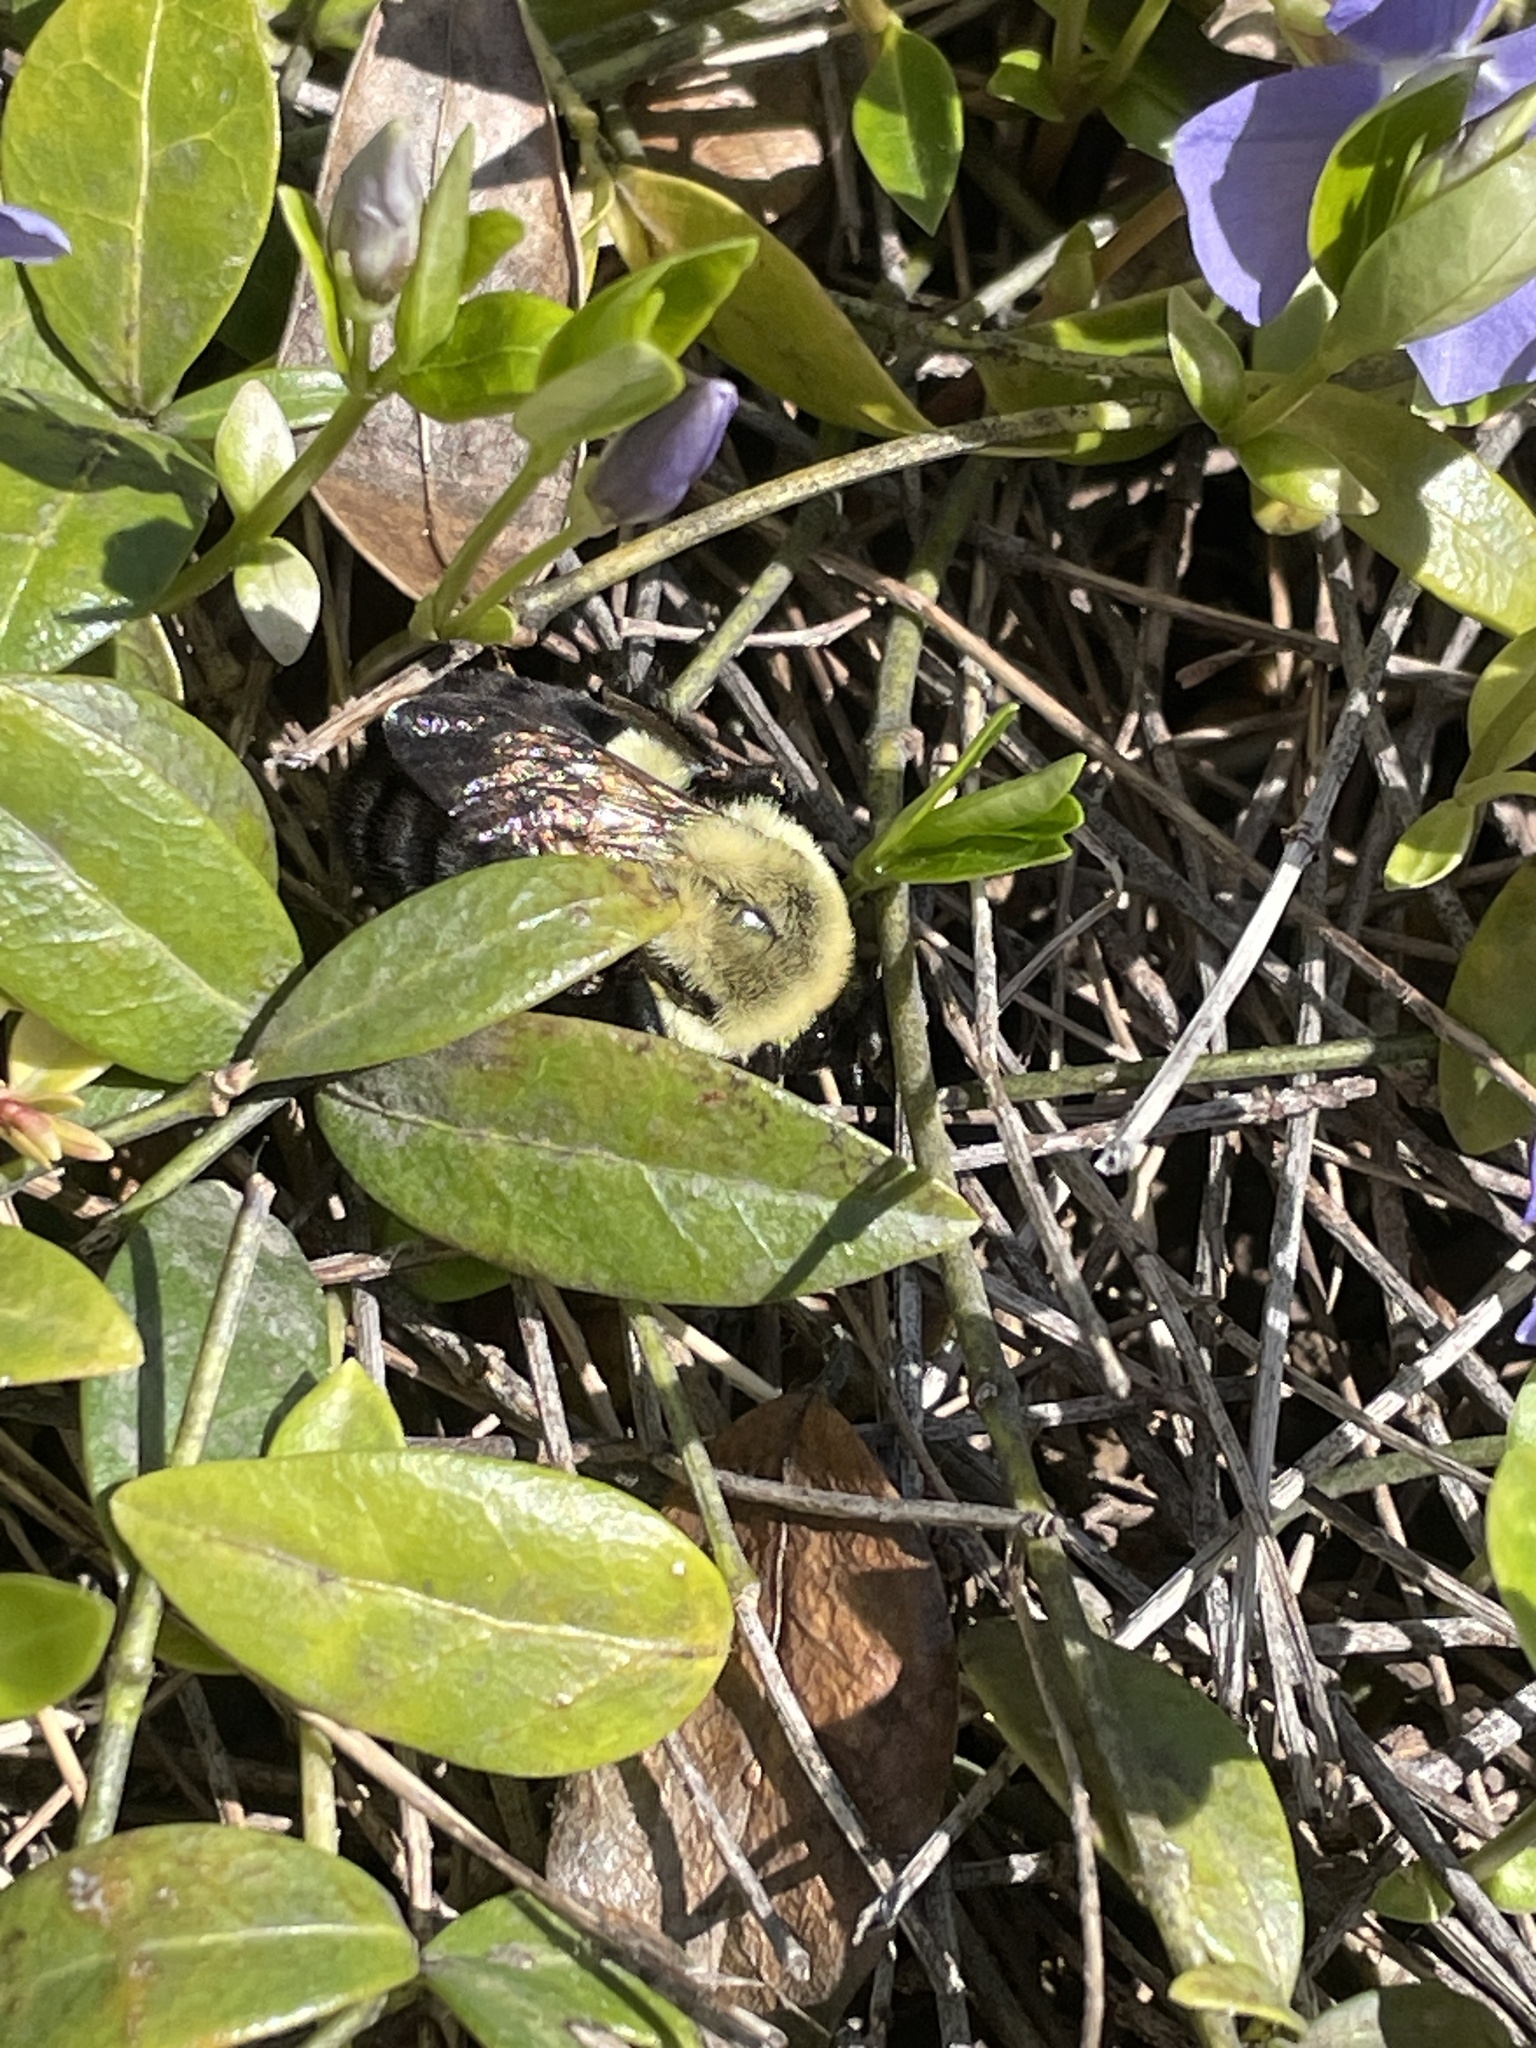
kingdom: Animalia
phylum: Arthropoda
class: Insecta
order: Hymenoptera
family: Apidae
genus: Bombus
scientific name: Bombus impatiens
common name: Common eastern bumble bee
